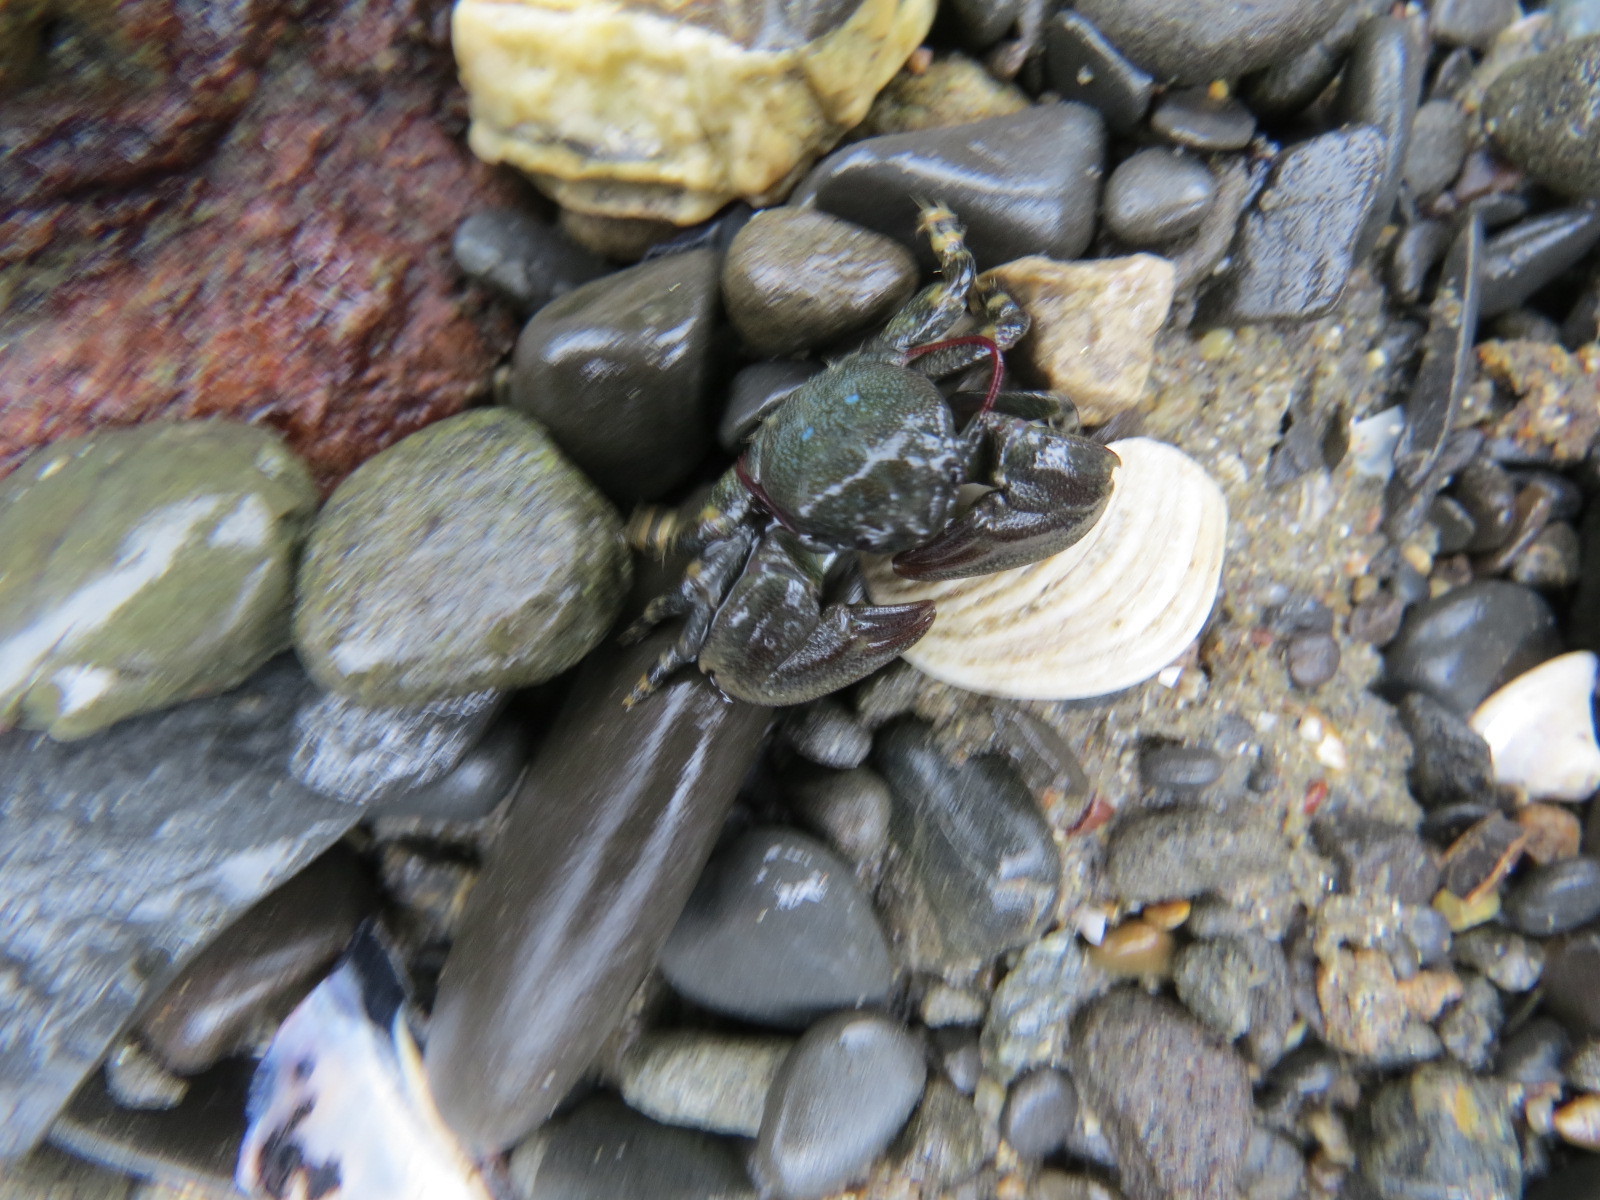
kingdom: Animalia
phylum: Arthropoda
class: Malacostraca
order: Decapoda
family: Porcellanidae
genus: Petrolisthes
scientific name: Petrolisthes cinctipes
